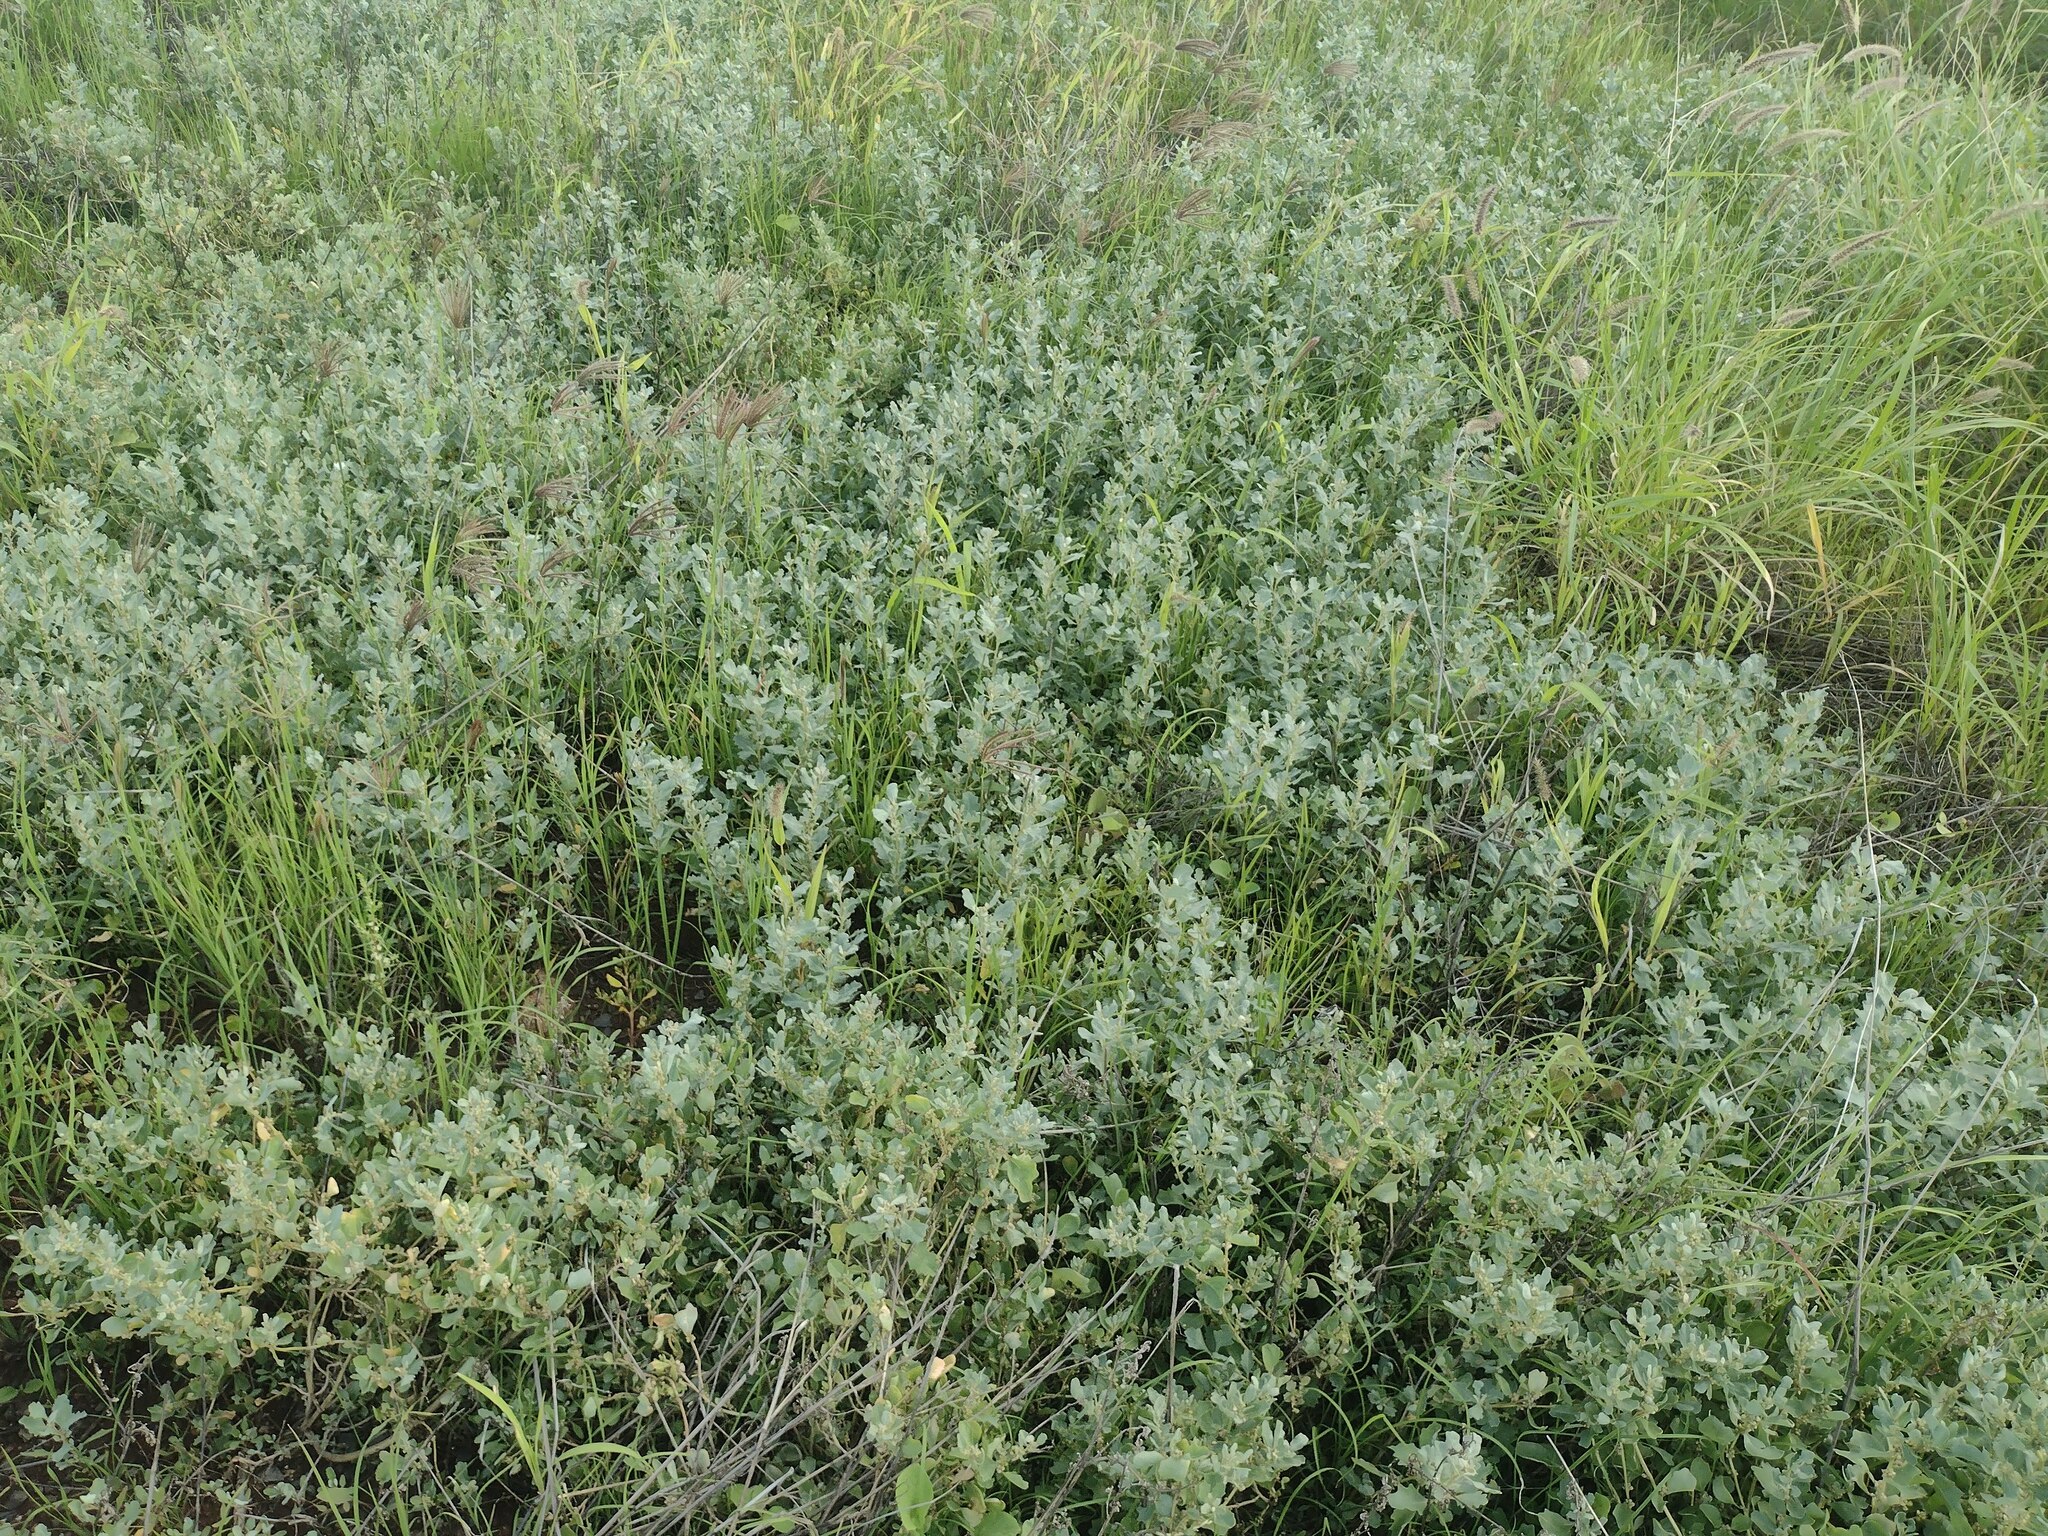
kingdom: Plantae
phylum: Tracheophyta
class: Magnoliopsida
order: Caryophyllales
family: Amaranthaceae
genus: Atriplex
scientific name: Atriplex muelleri
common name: Mueller's saltbush
